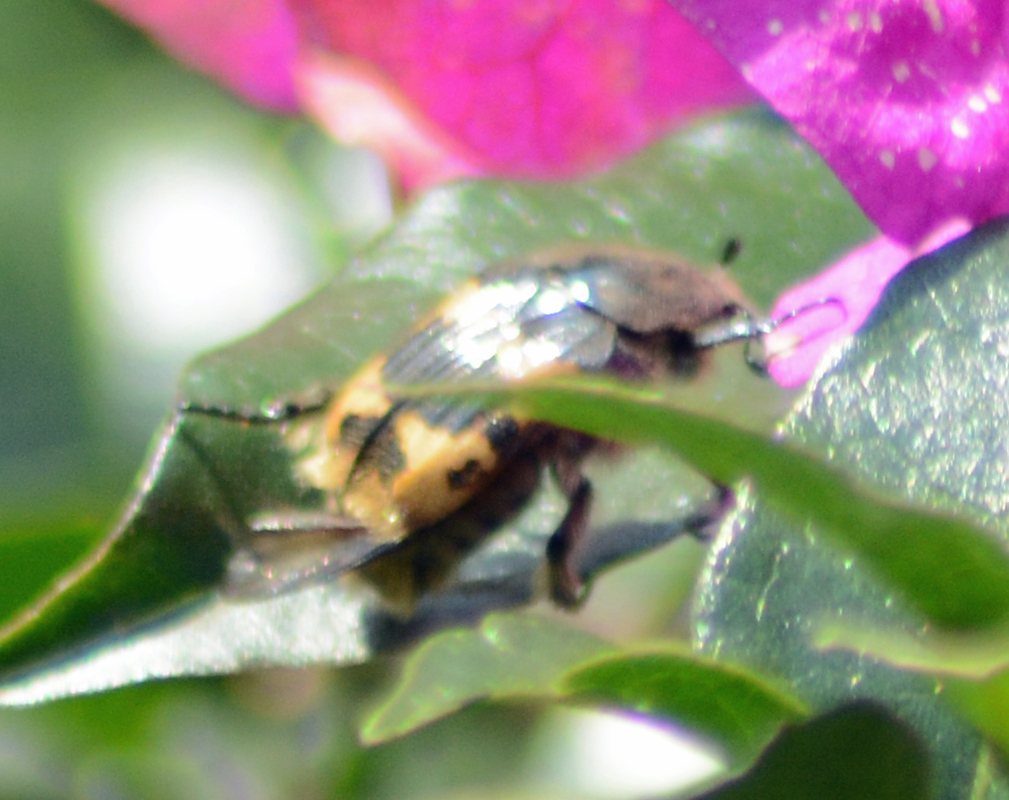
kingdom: Animalia
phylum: Arthropoda
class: Insecta
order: Coleoptera
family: Scarabaeidae
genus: Euphoria
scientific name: Euphoria basalis
